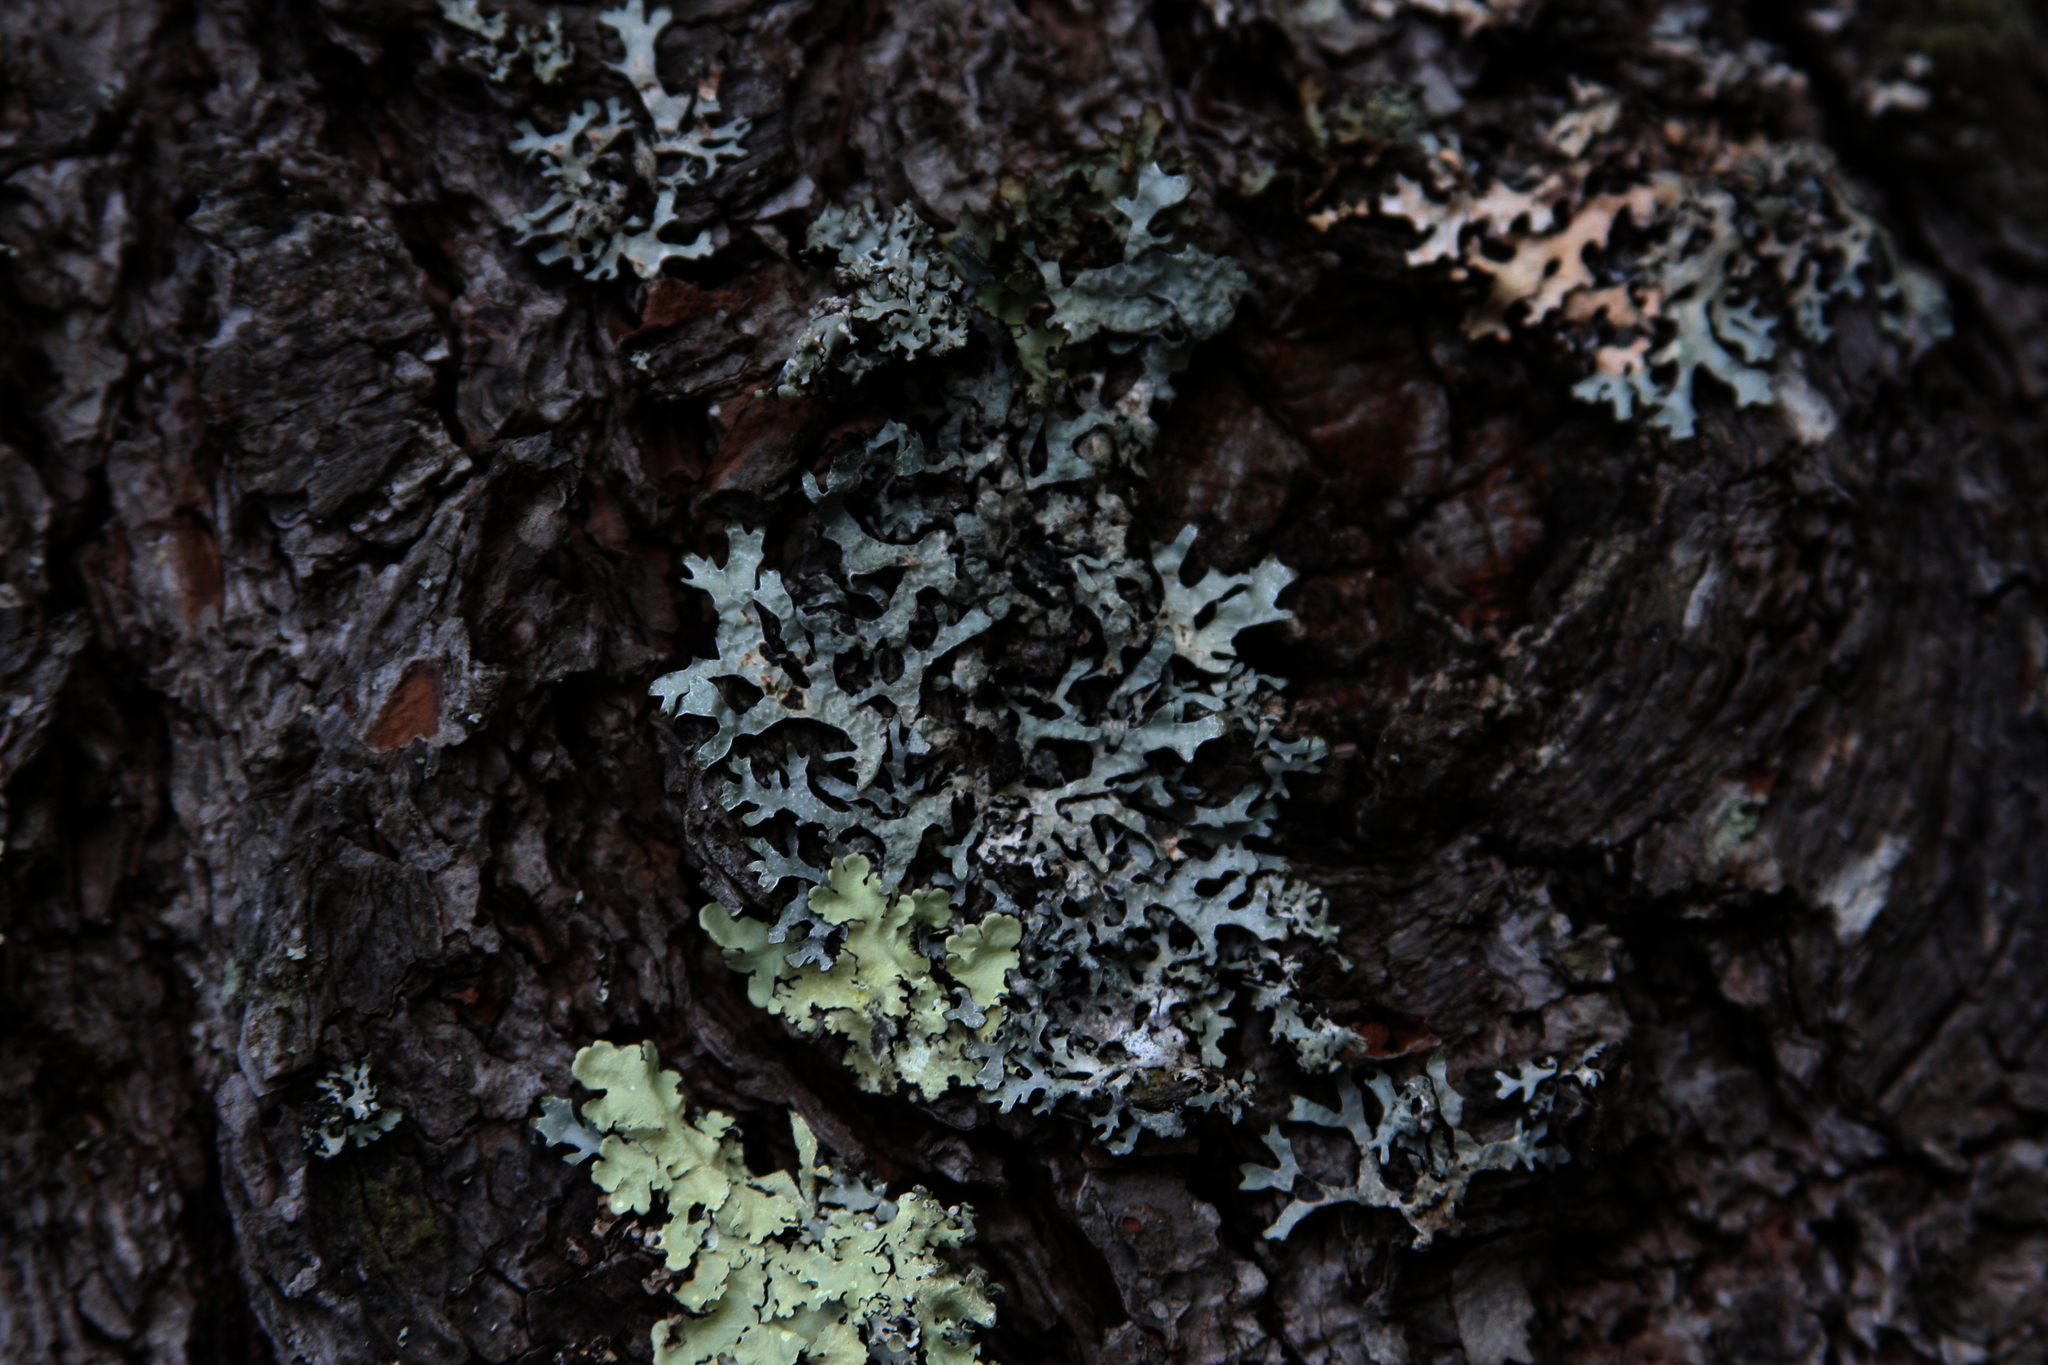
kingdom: Fungi
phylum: Ascomycota
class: Lecanoromycetes
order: Lecanorales
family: Parmeliaceae
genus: Parmelia
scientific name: Parmelia sulcata
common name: Netted shield lichen
